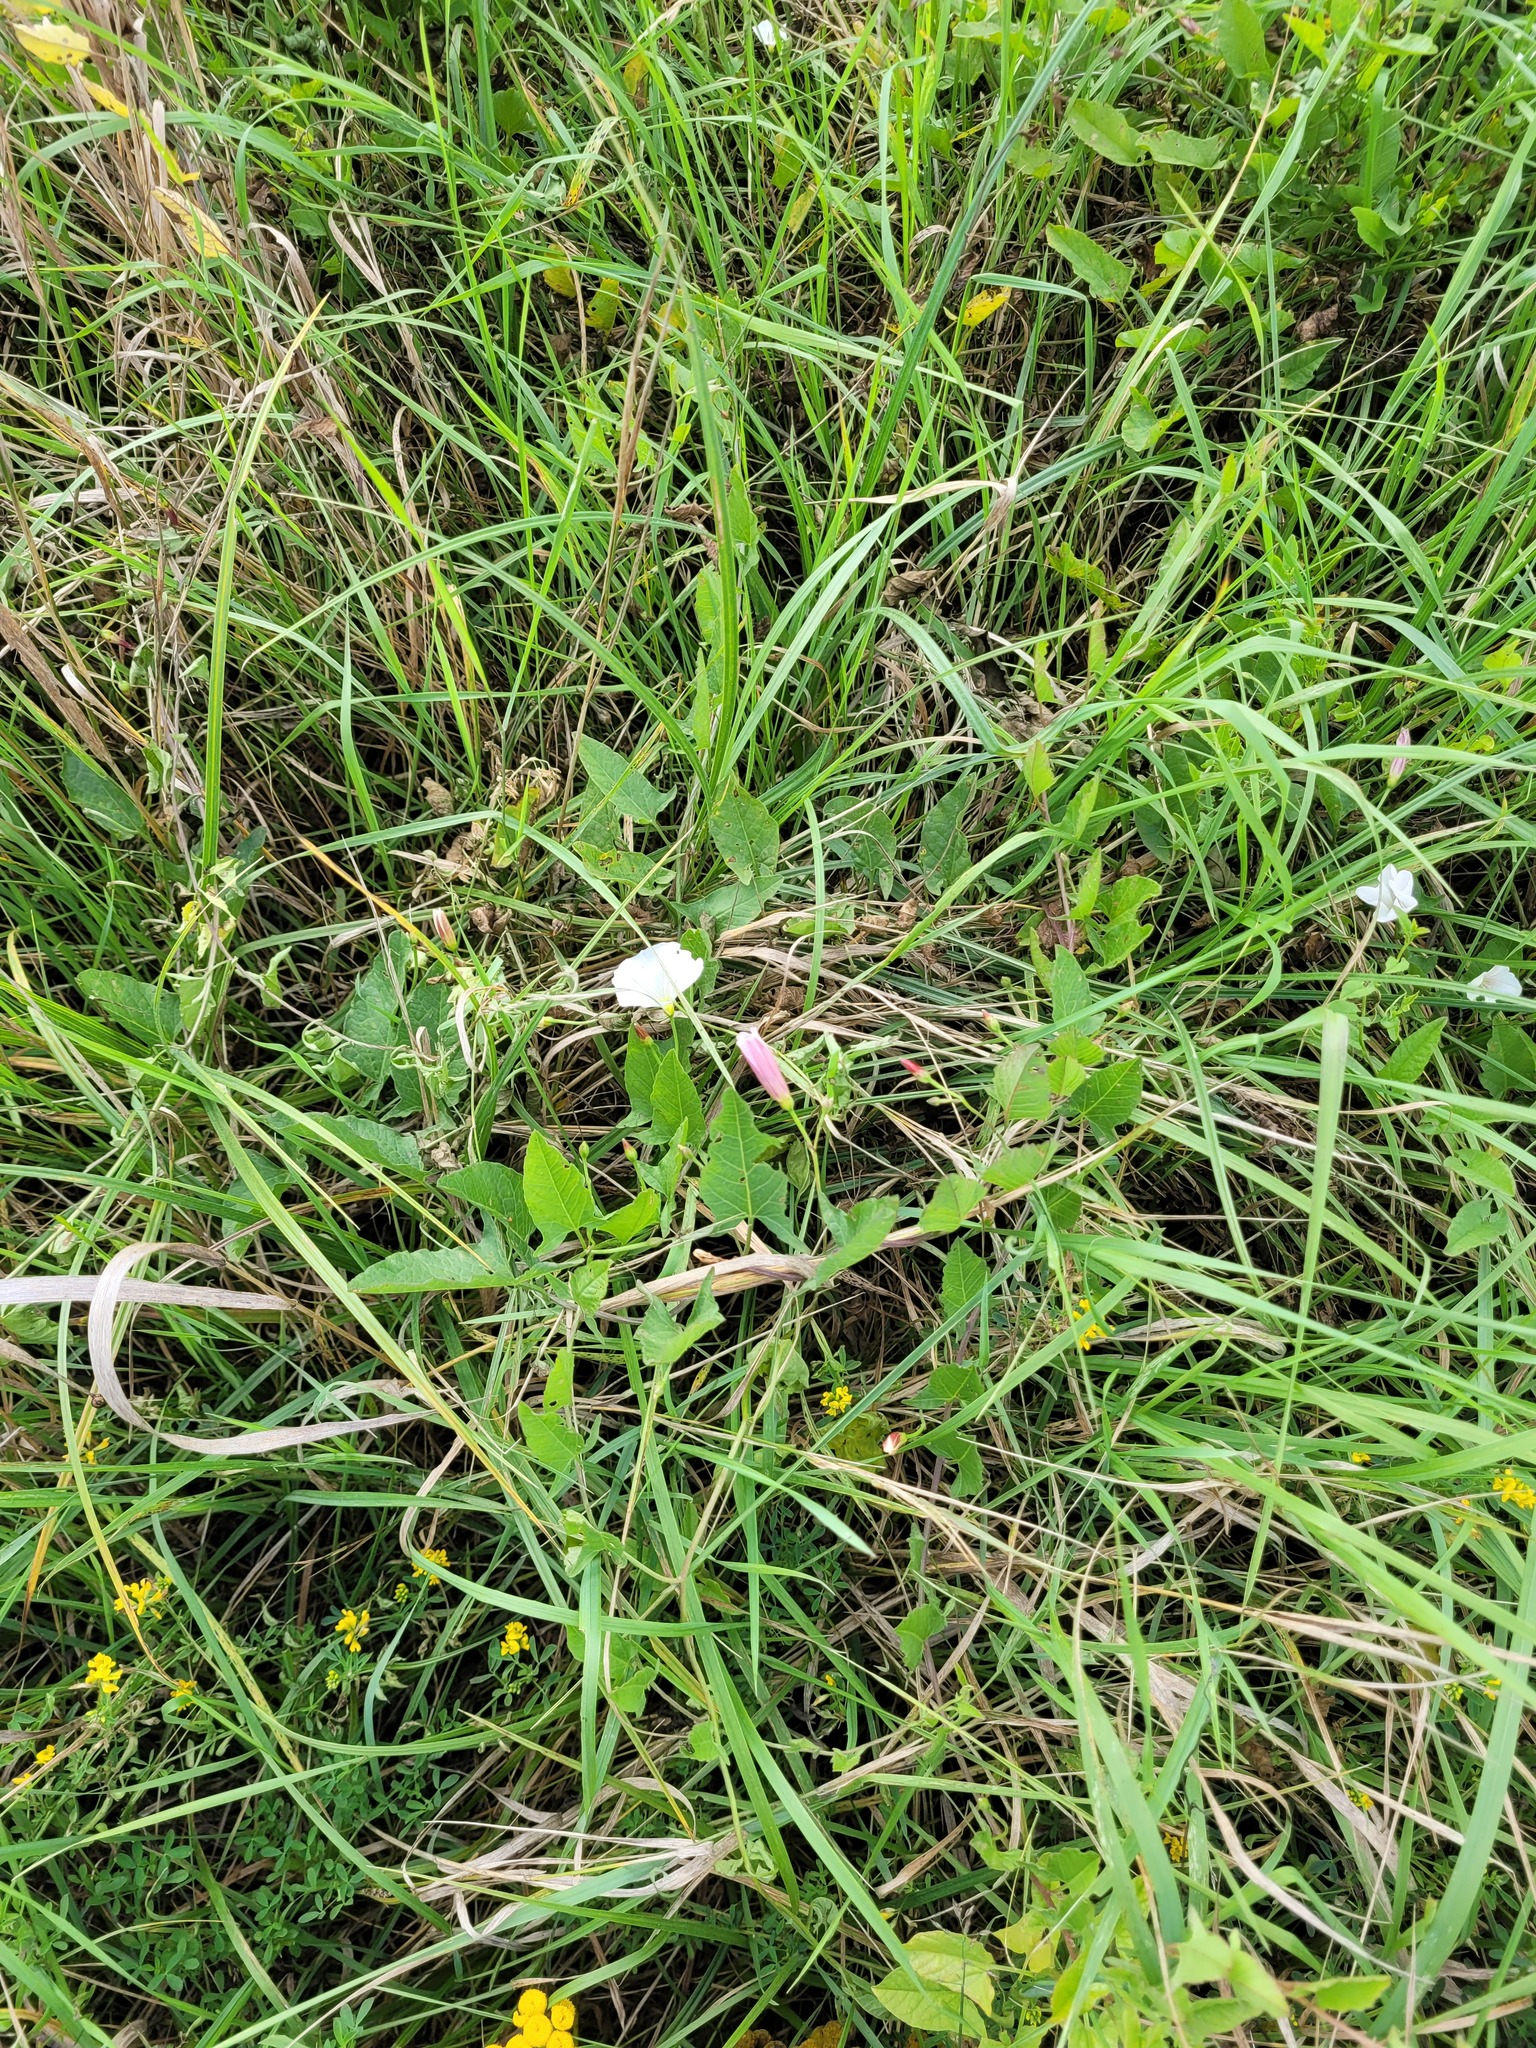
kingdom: Plantae
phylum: Tracheophyta
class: Magnoliopsida
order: Solanales
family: Convolvulaceae
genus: Convolvulus
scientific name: Convolvulus arvensis
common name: Field bindweed
